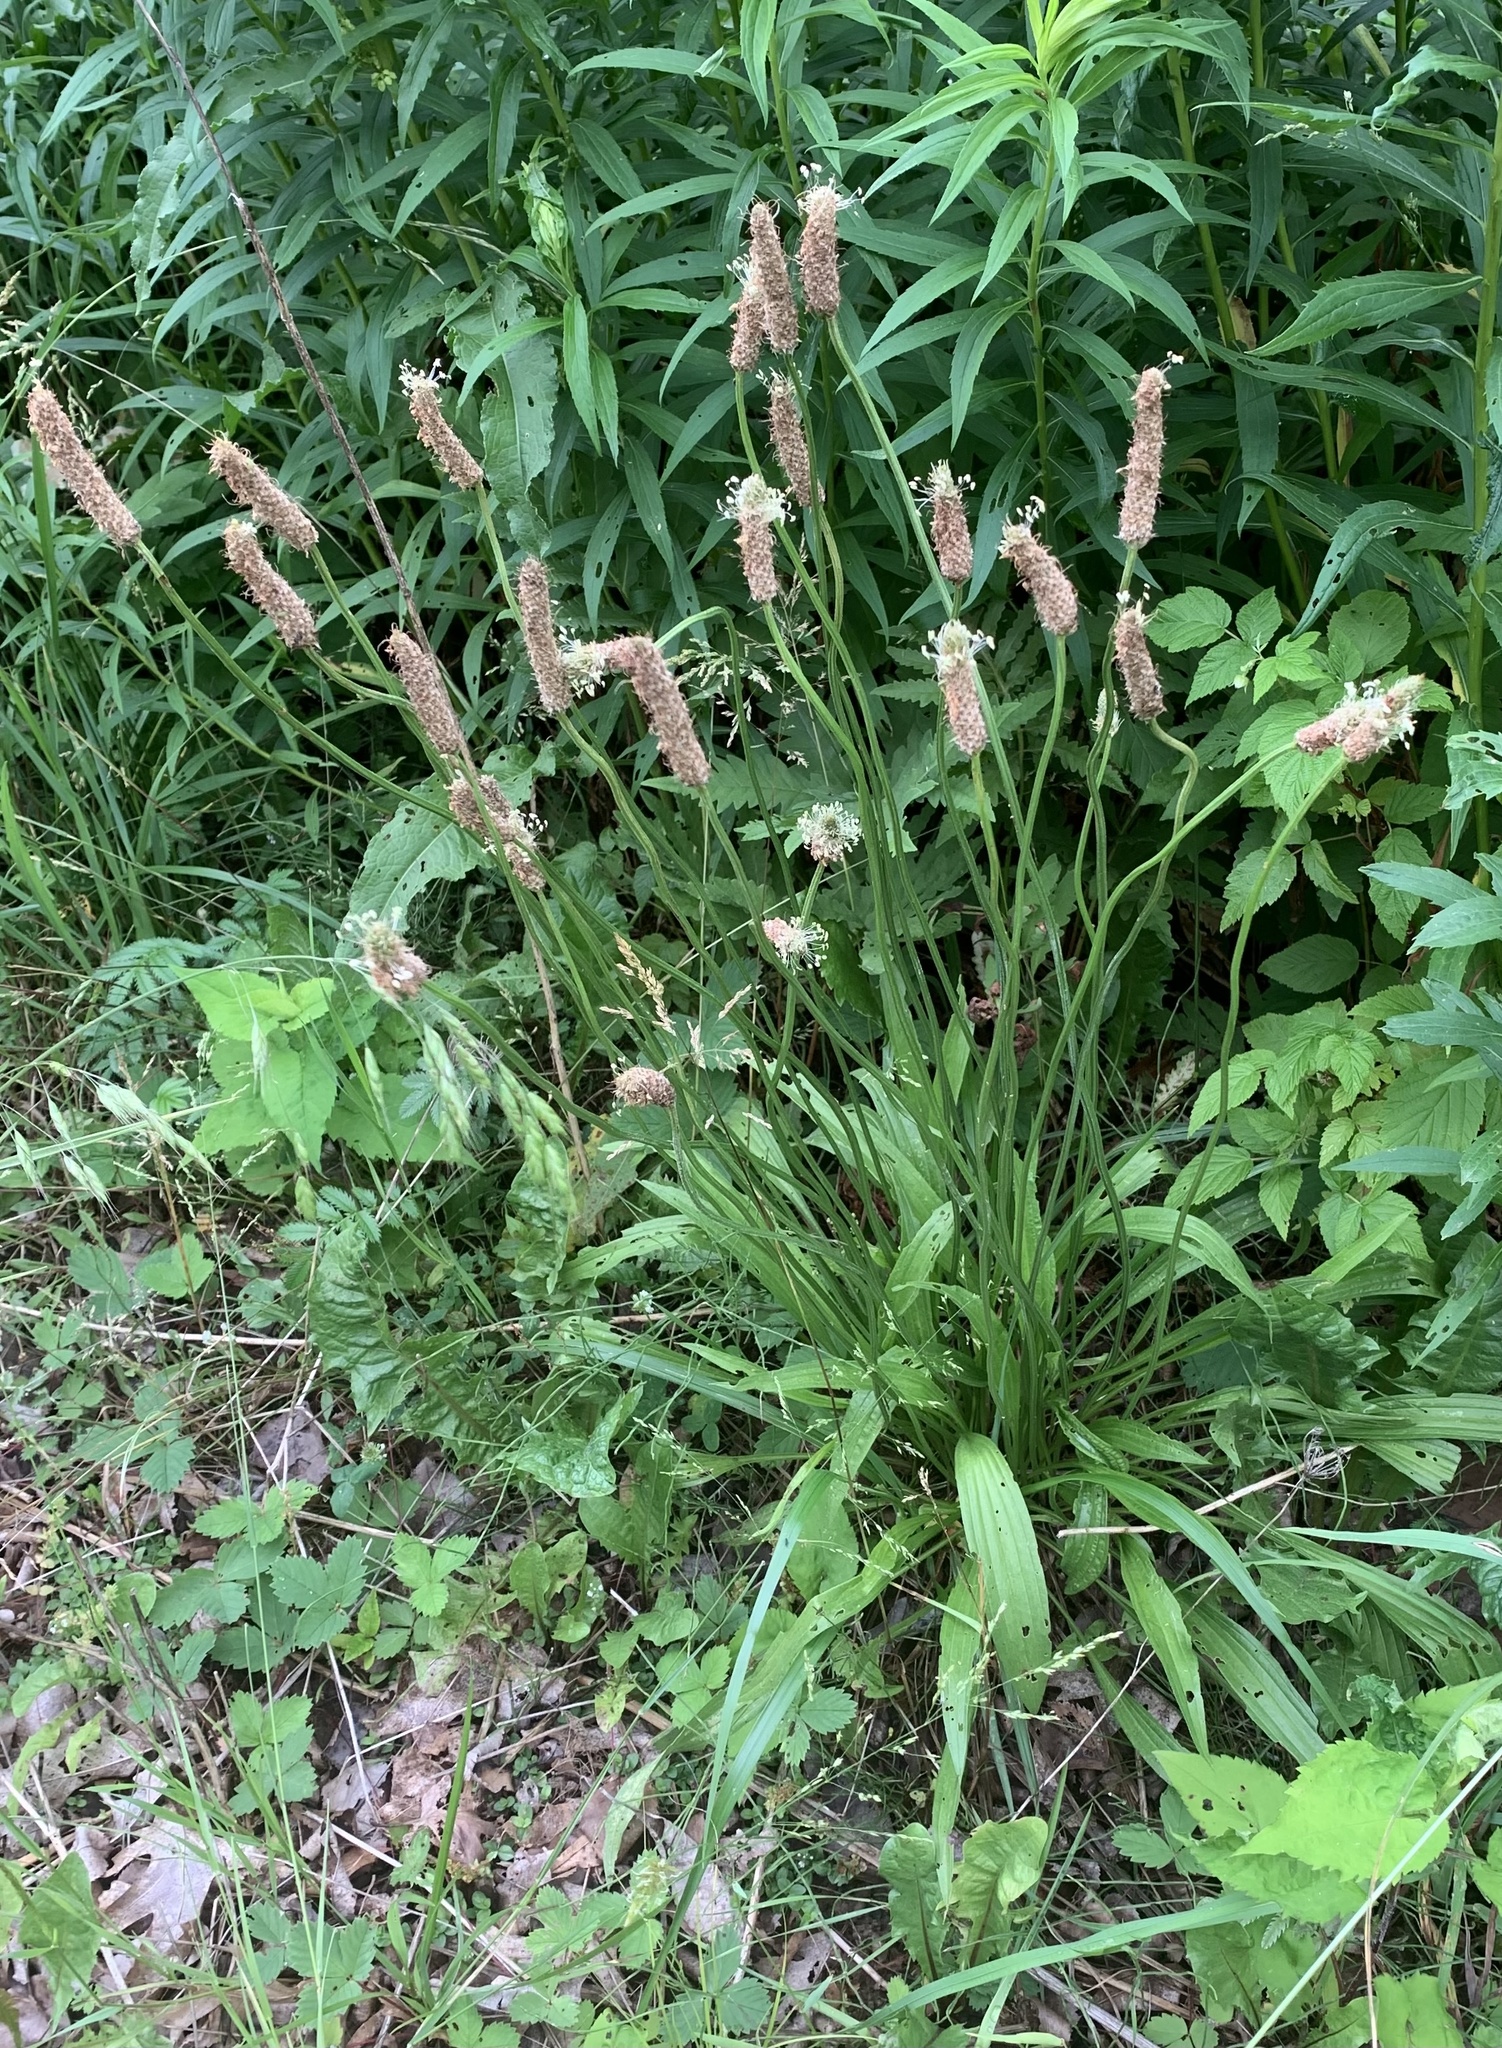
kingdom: Plantae
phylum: Tracheophyta
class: Magnoliopsida
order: Lamiales
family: Plantaginaceae
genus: Plantago
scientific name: Plantago lanceolata
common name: Ribwort plantain
